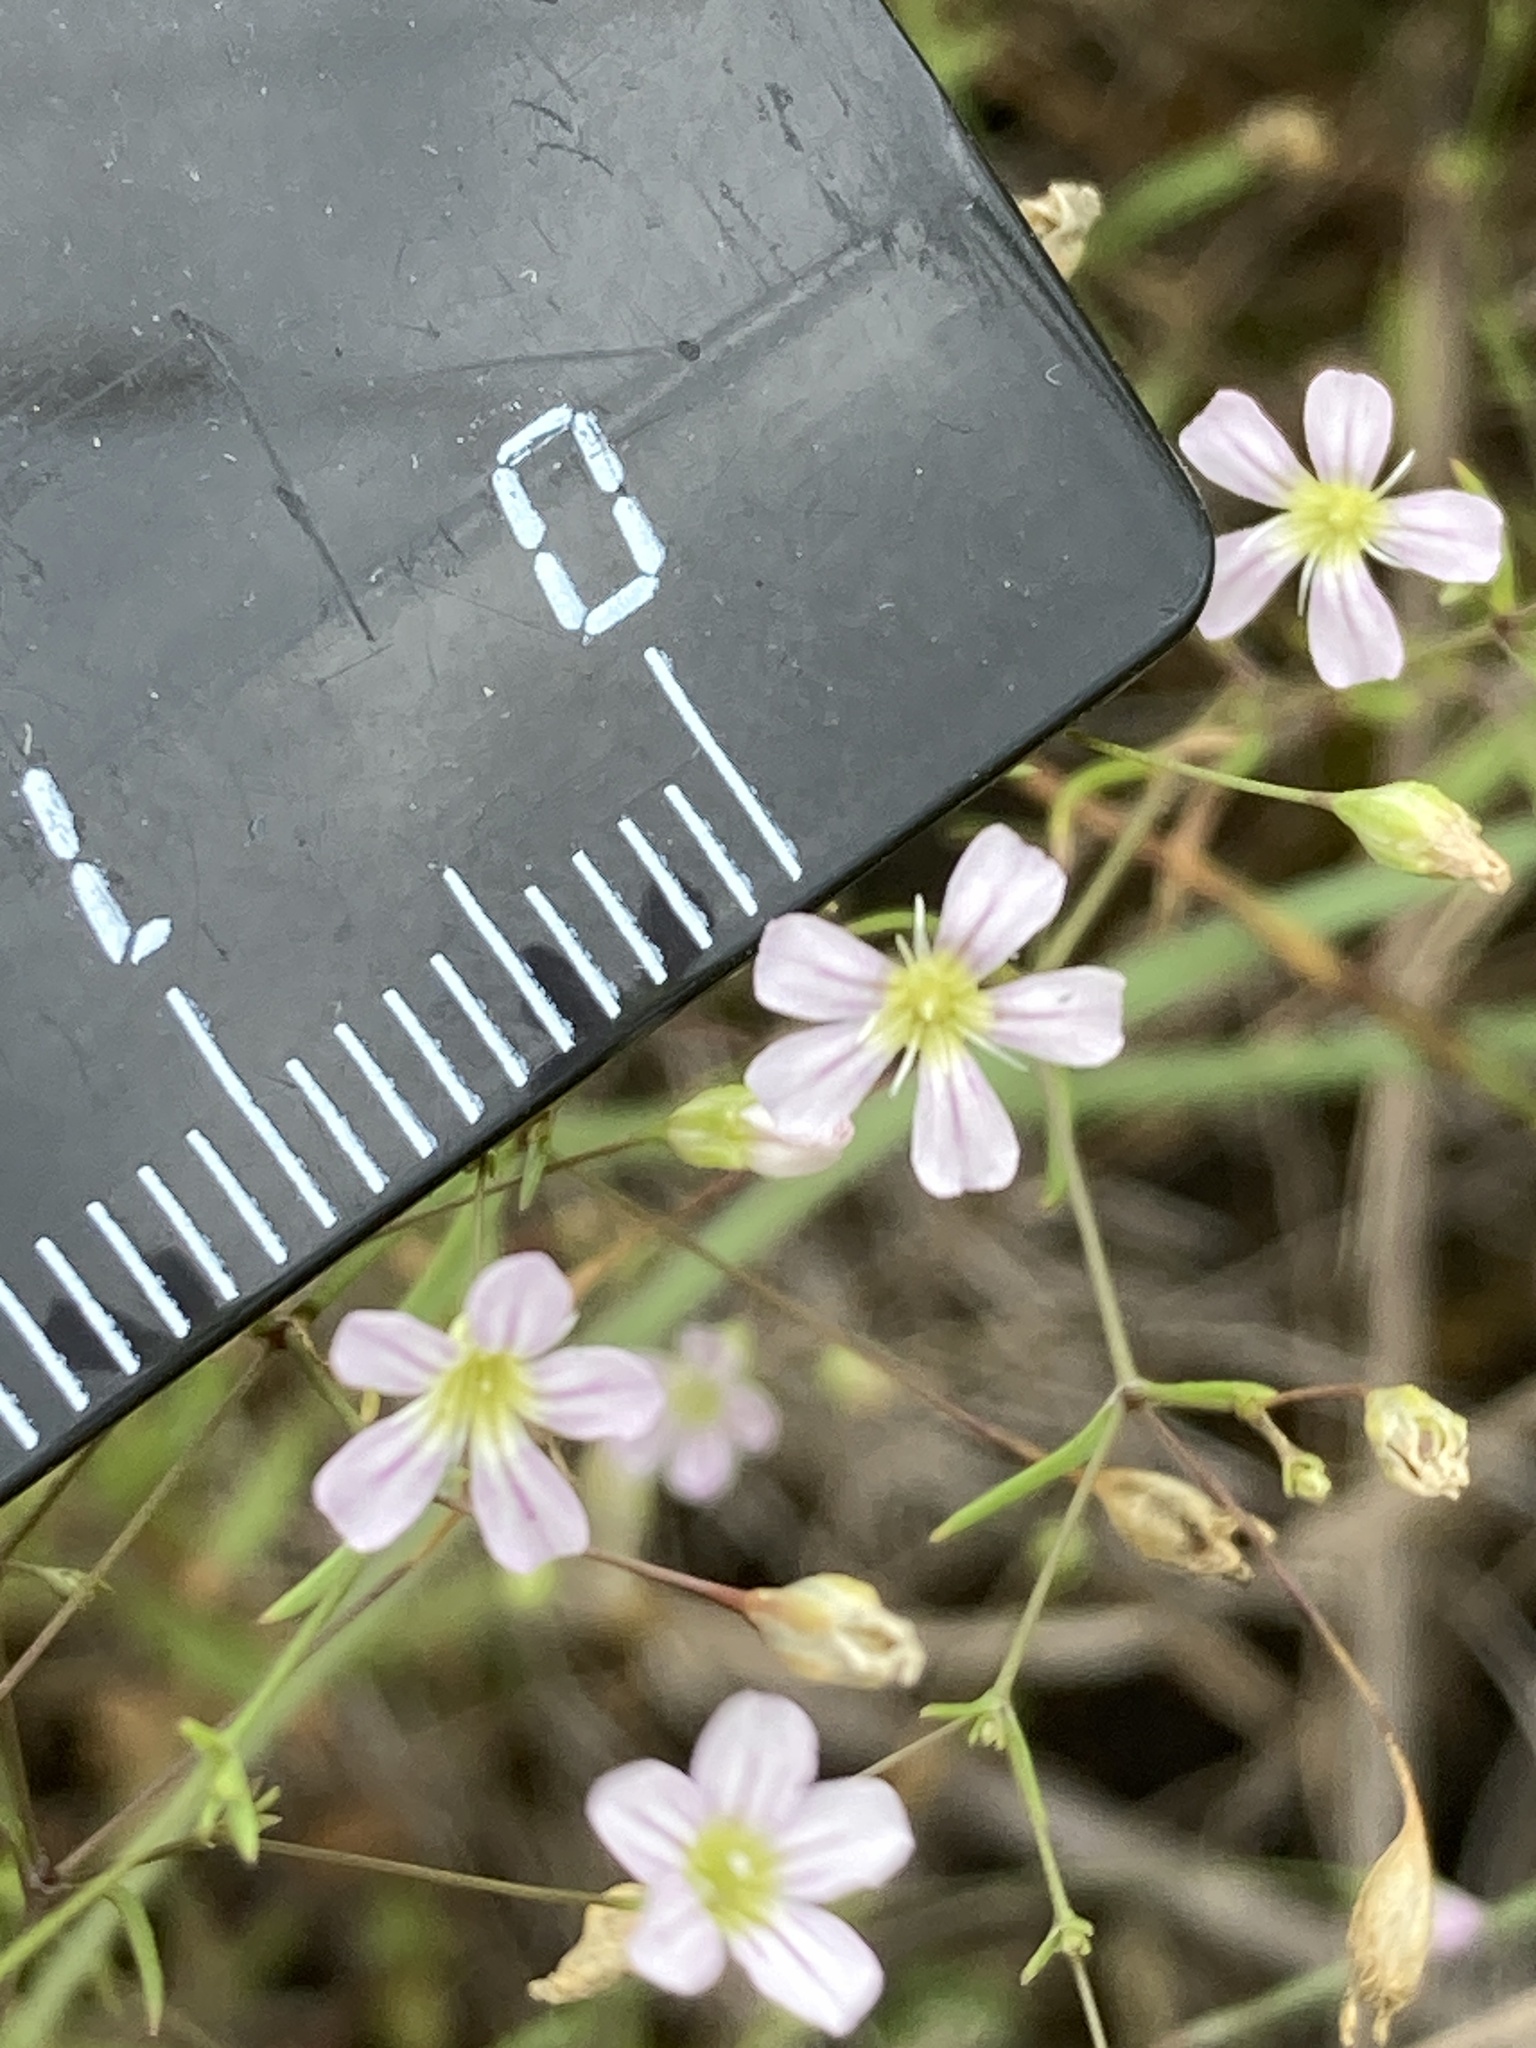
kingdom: Plantae
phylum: Tracheophyta
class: Magnoliopsida
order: Caryophyllales
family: Caryophyllaceae
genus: Psammophiliella
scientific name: Psammophiliella muralis
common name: Cushion baby's-breath
